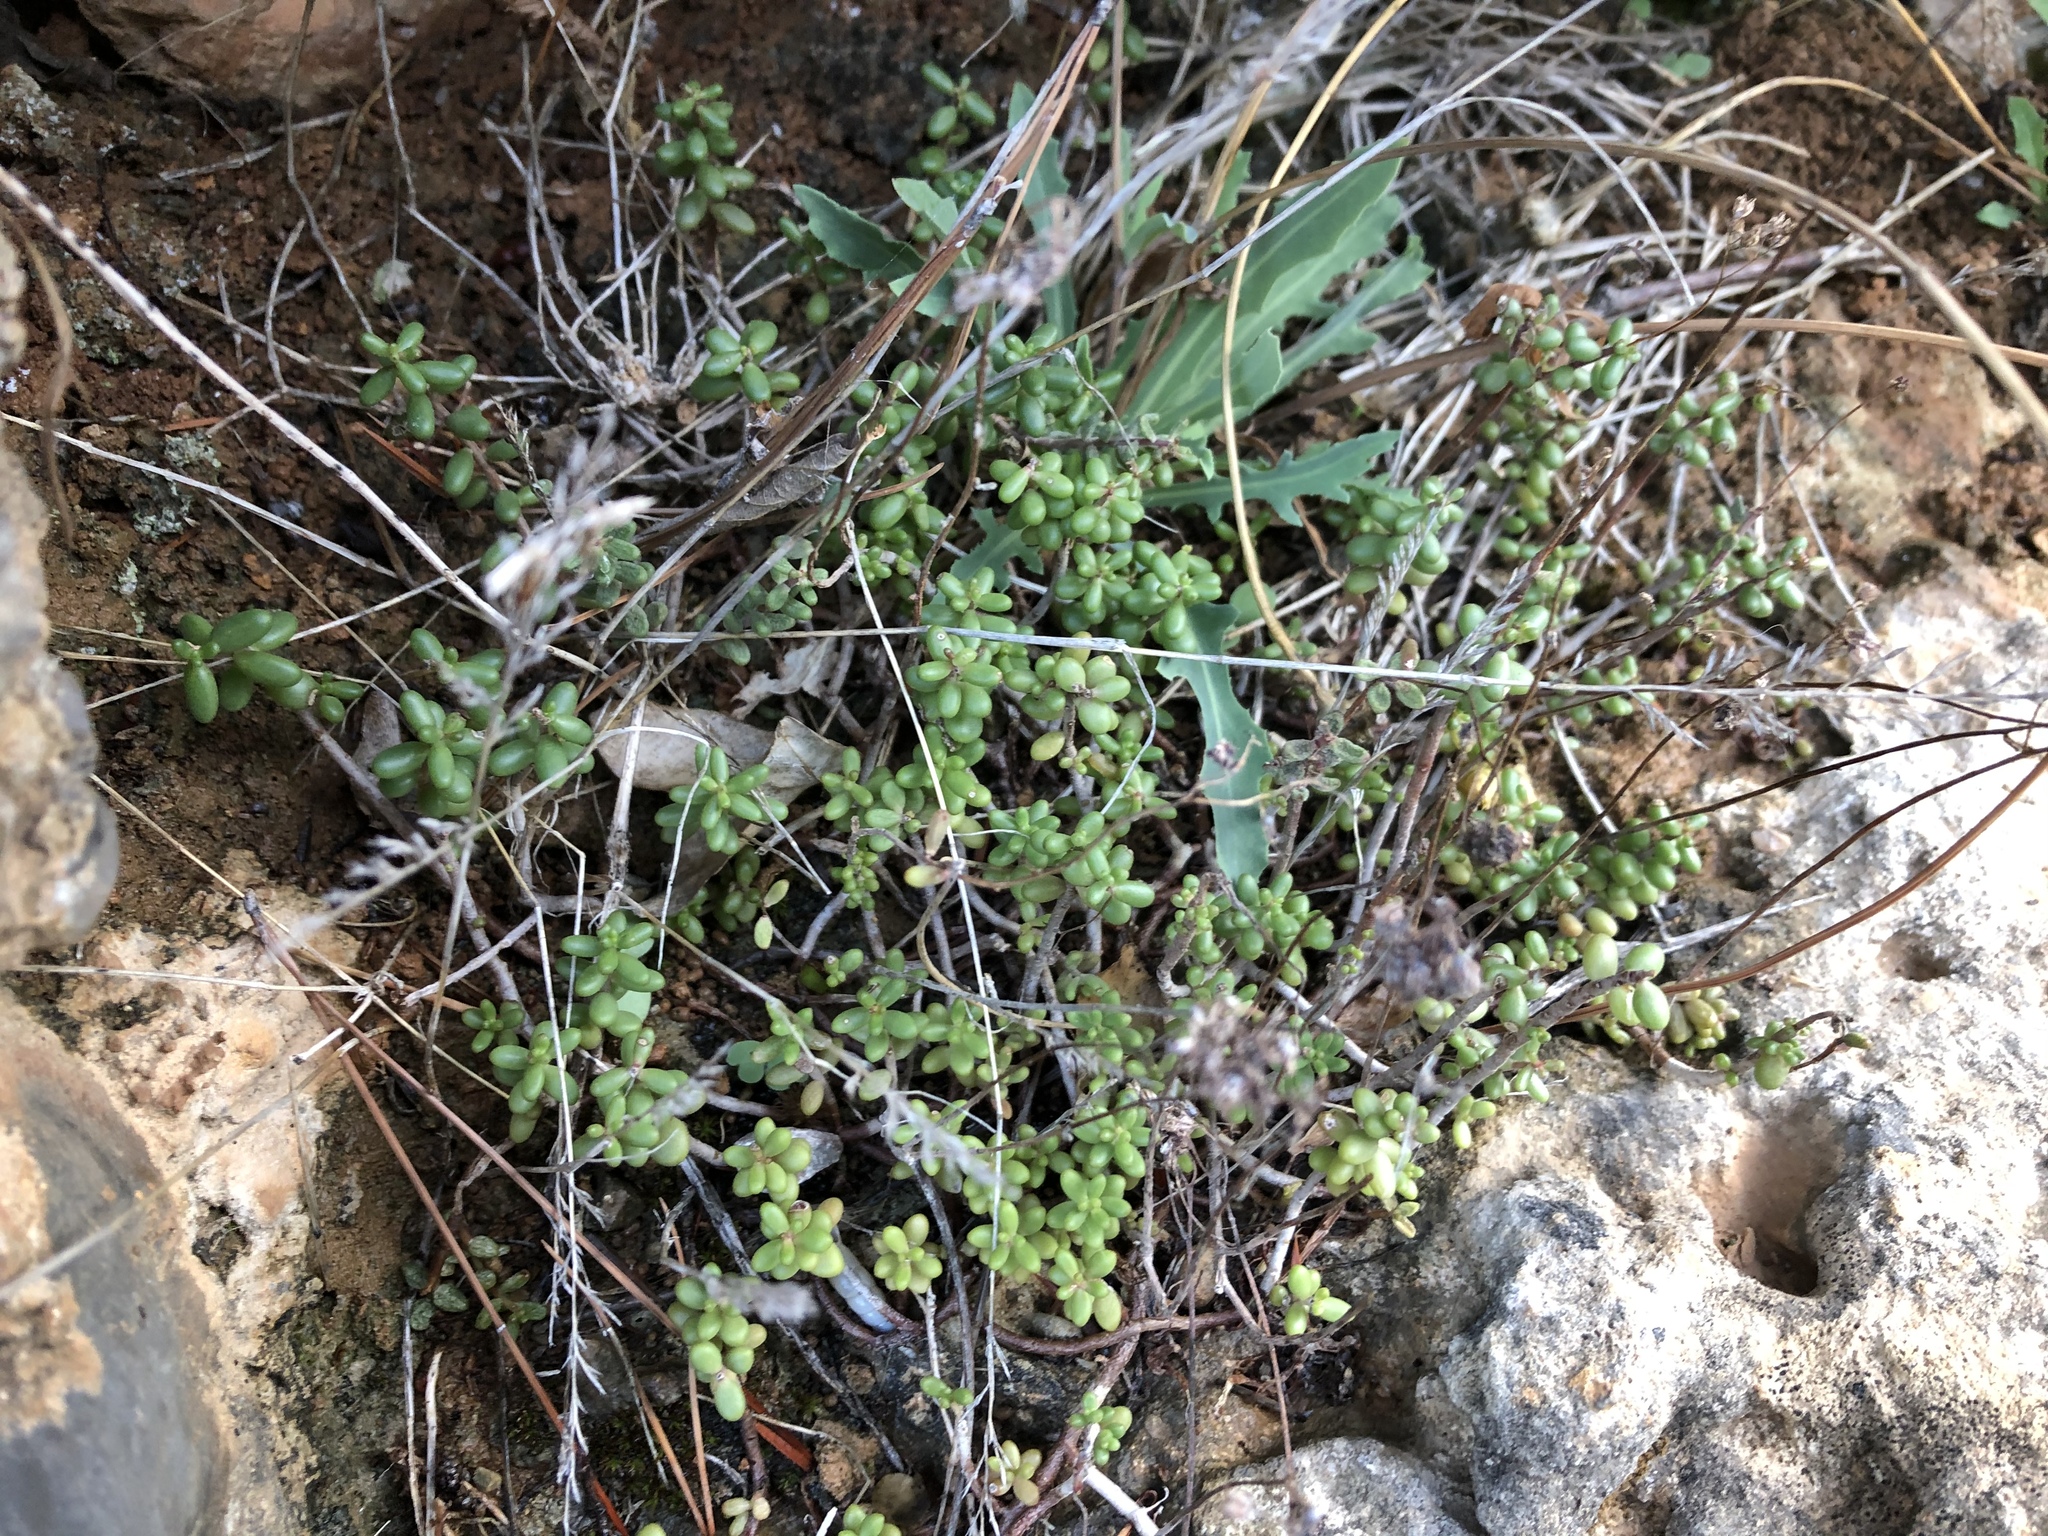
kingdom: Plantae
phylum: Tracheophyta
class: Magnoliopsida
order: Saxifragales
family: Crassulaceae
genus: Sedum
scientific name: Sedum album
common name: White stonecrop
